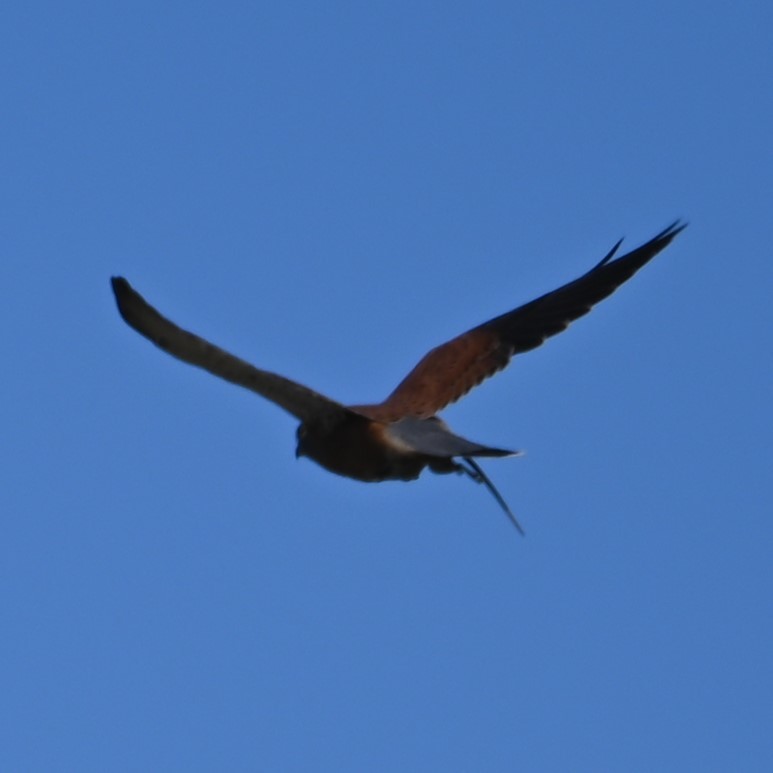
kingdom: Animalia
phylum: Chordata
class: Aves
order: Falconiformes
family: Falconidae
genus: Falco
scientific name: Falco rupicolus
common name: Rock kestrel
